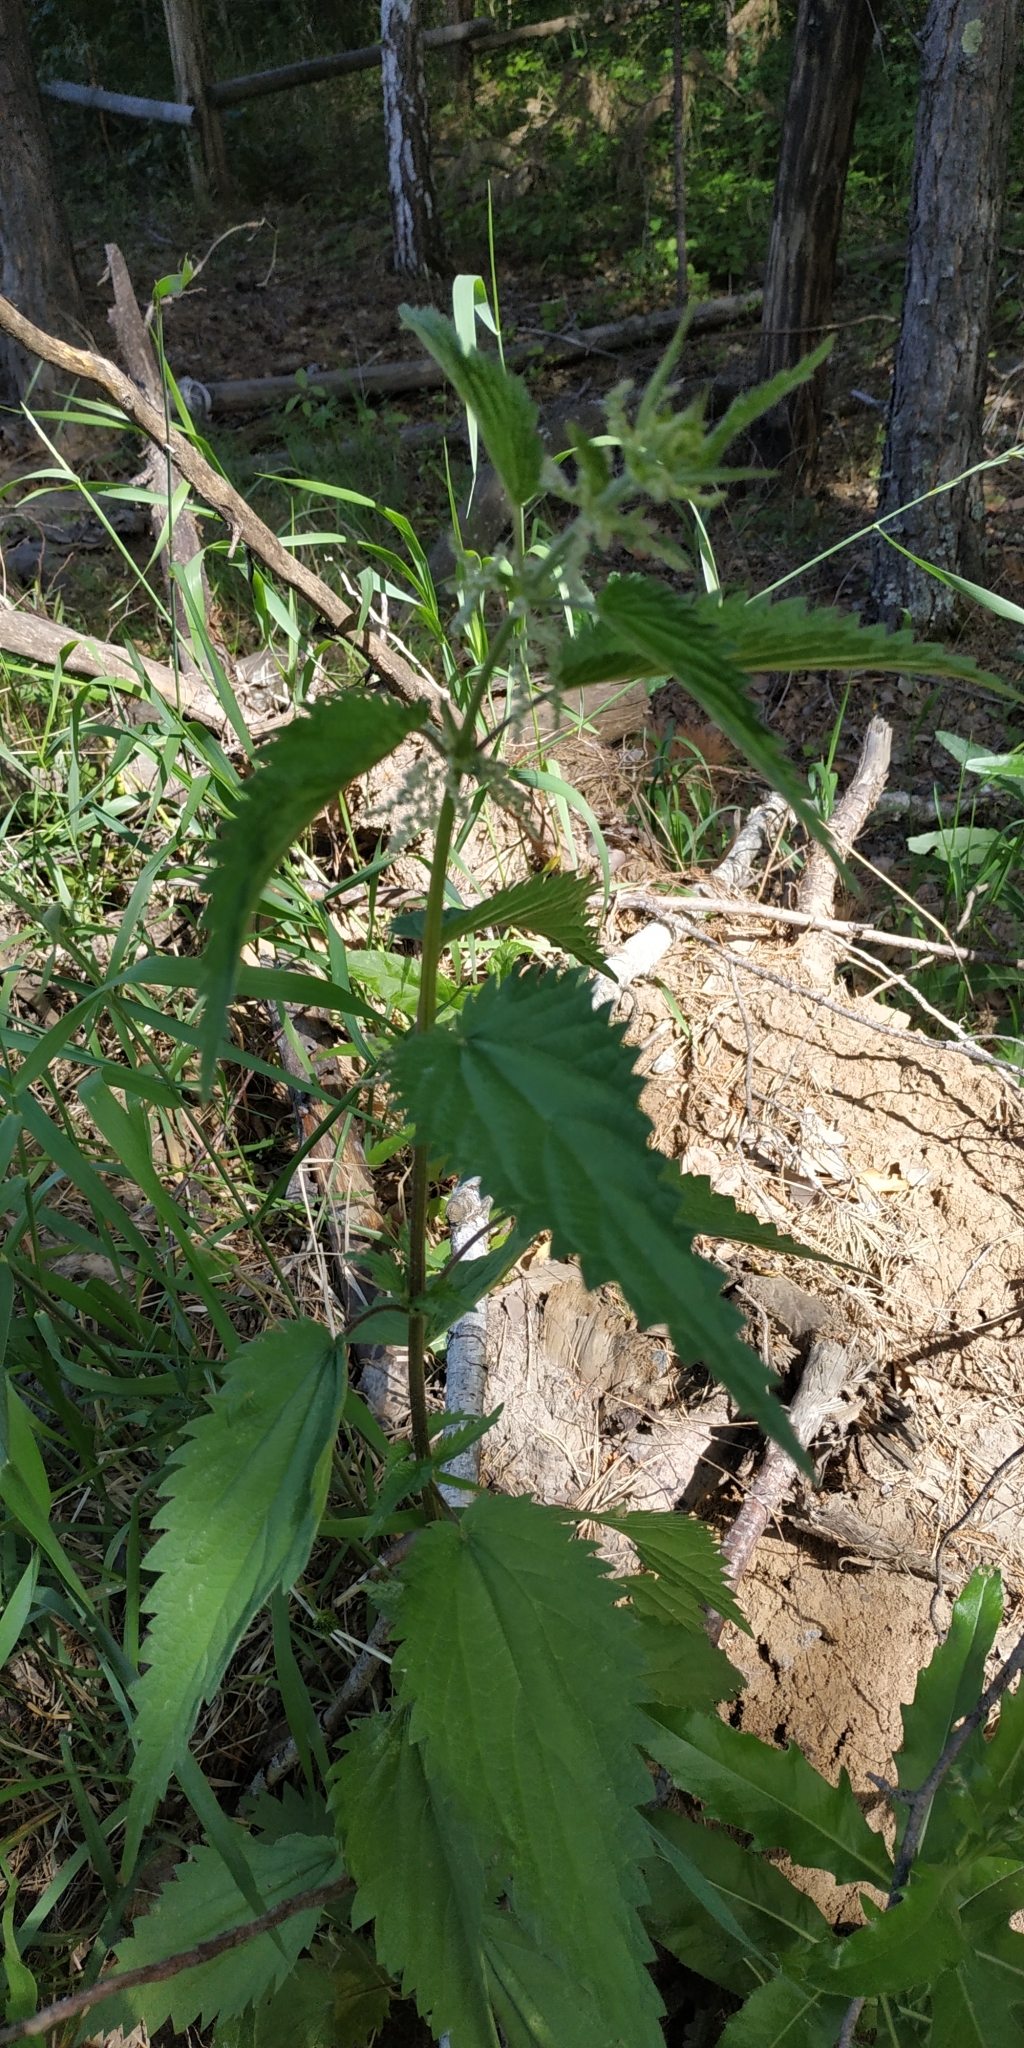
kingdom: Plantae
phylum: Tracheophyta
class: Magnoliopsida
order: Rosales
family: Urticaceae
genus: Urtica
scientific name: Urtica dioica
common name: Common nettle
